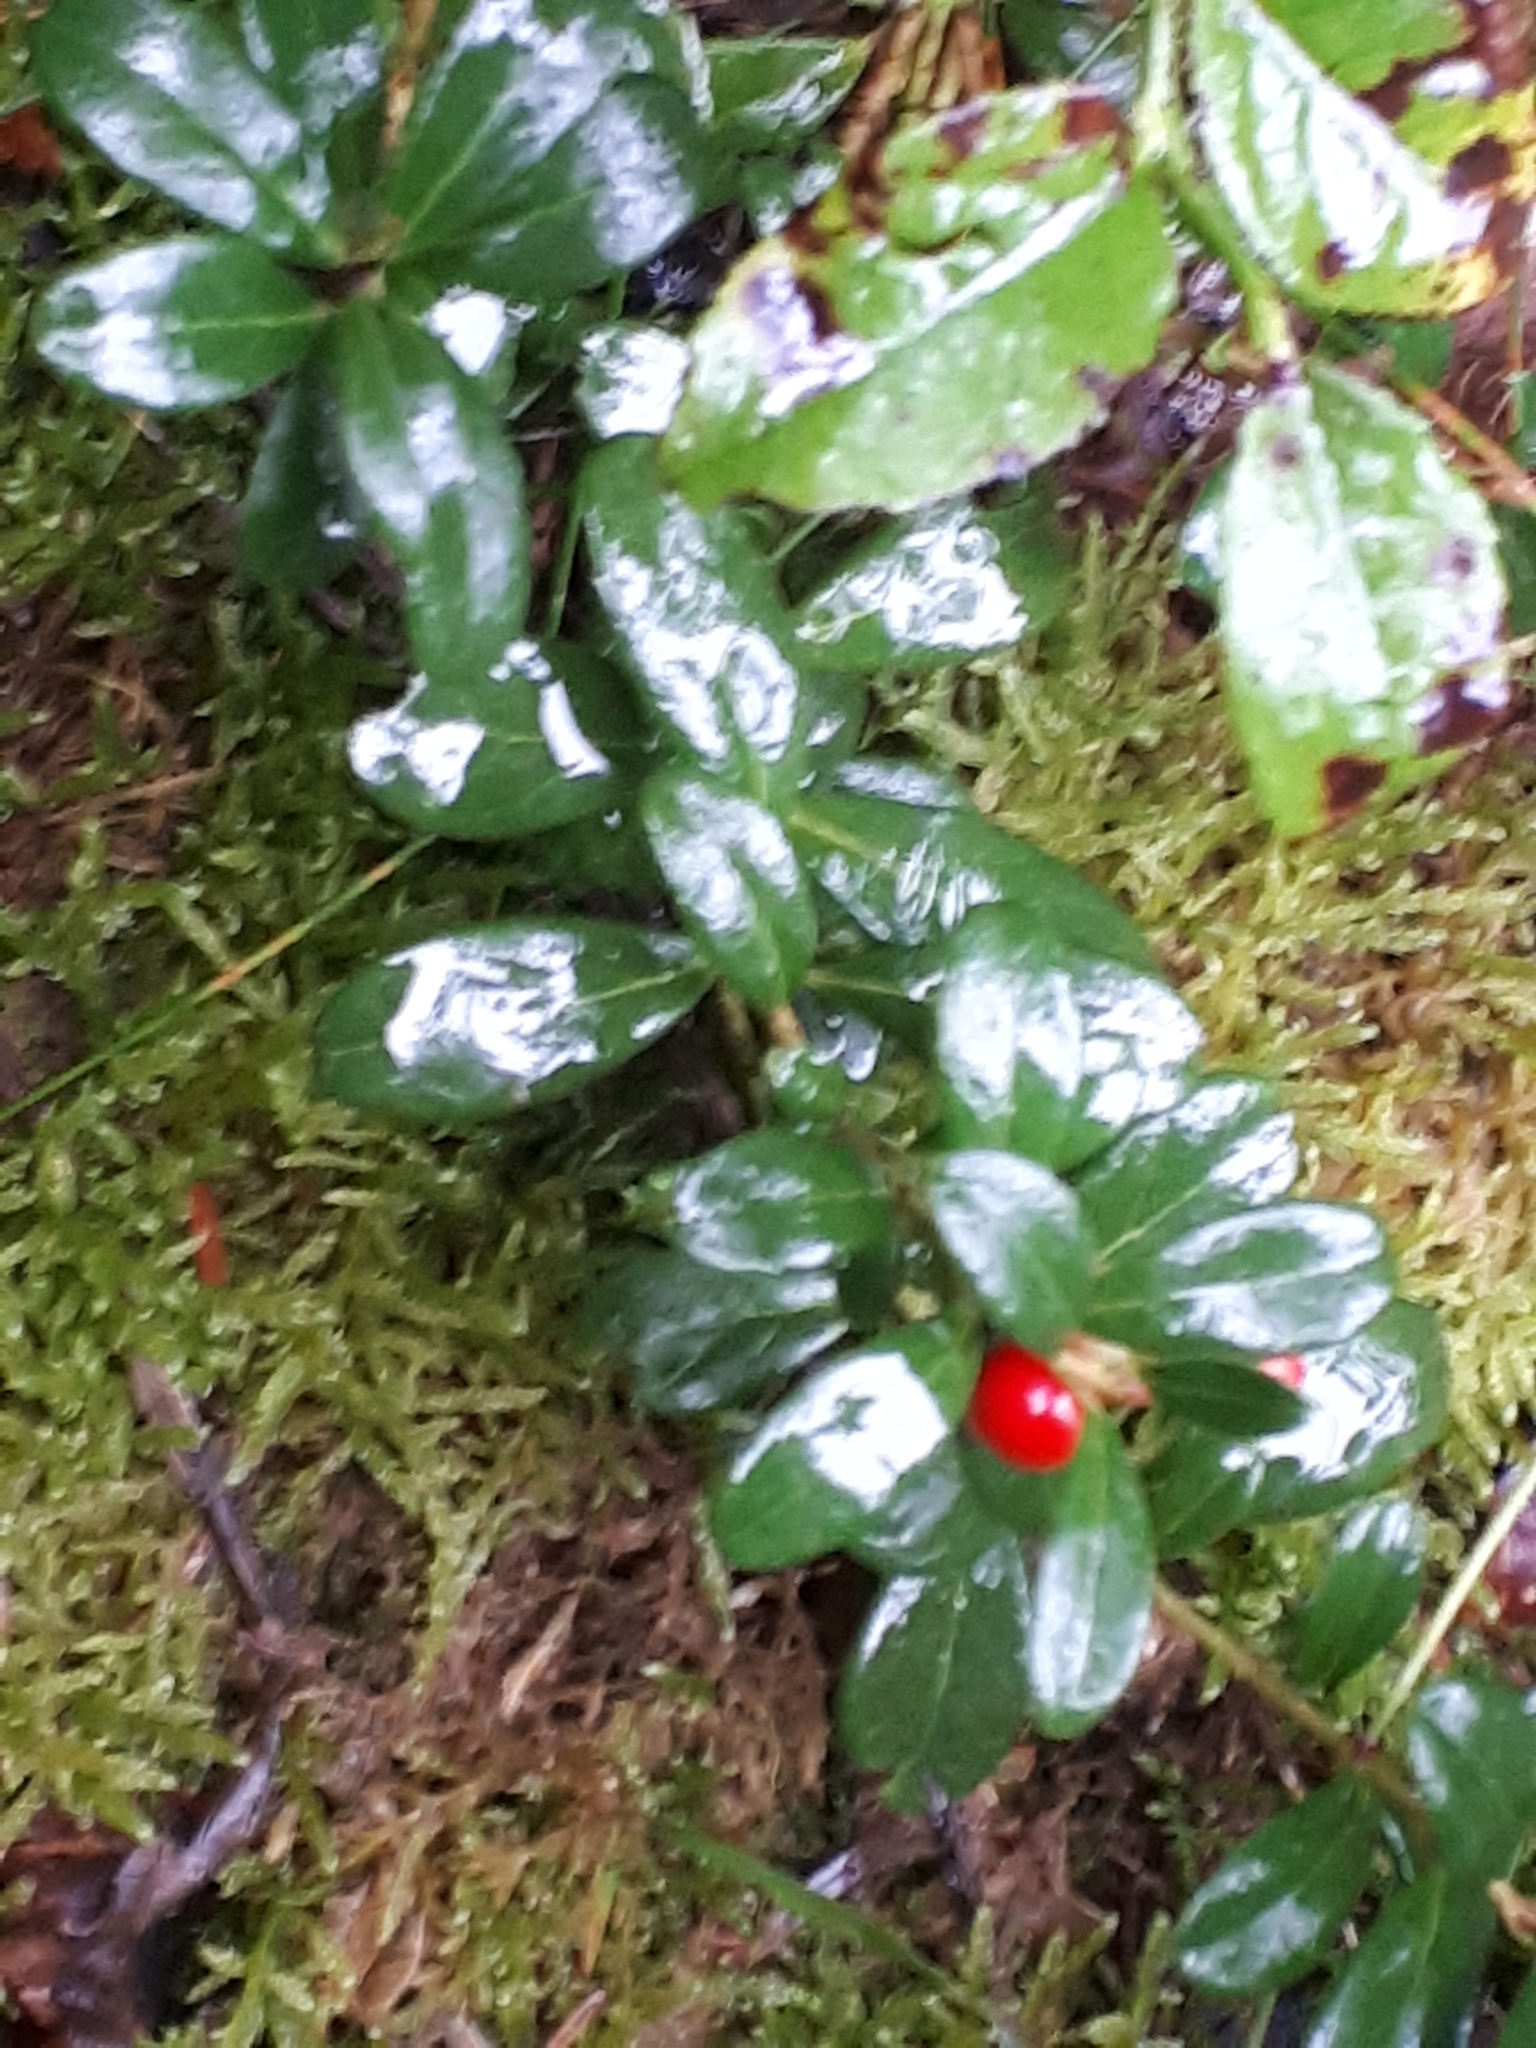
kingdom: Plantae
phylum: Tracheophyta
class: Magnoliopsida
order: Ericales
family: Ericaceae
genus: Vaccinium
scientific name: Vaccinium vitis-idaea
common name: Cowberry
